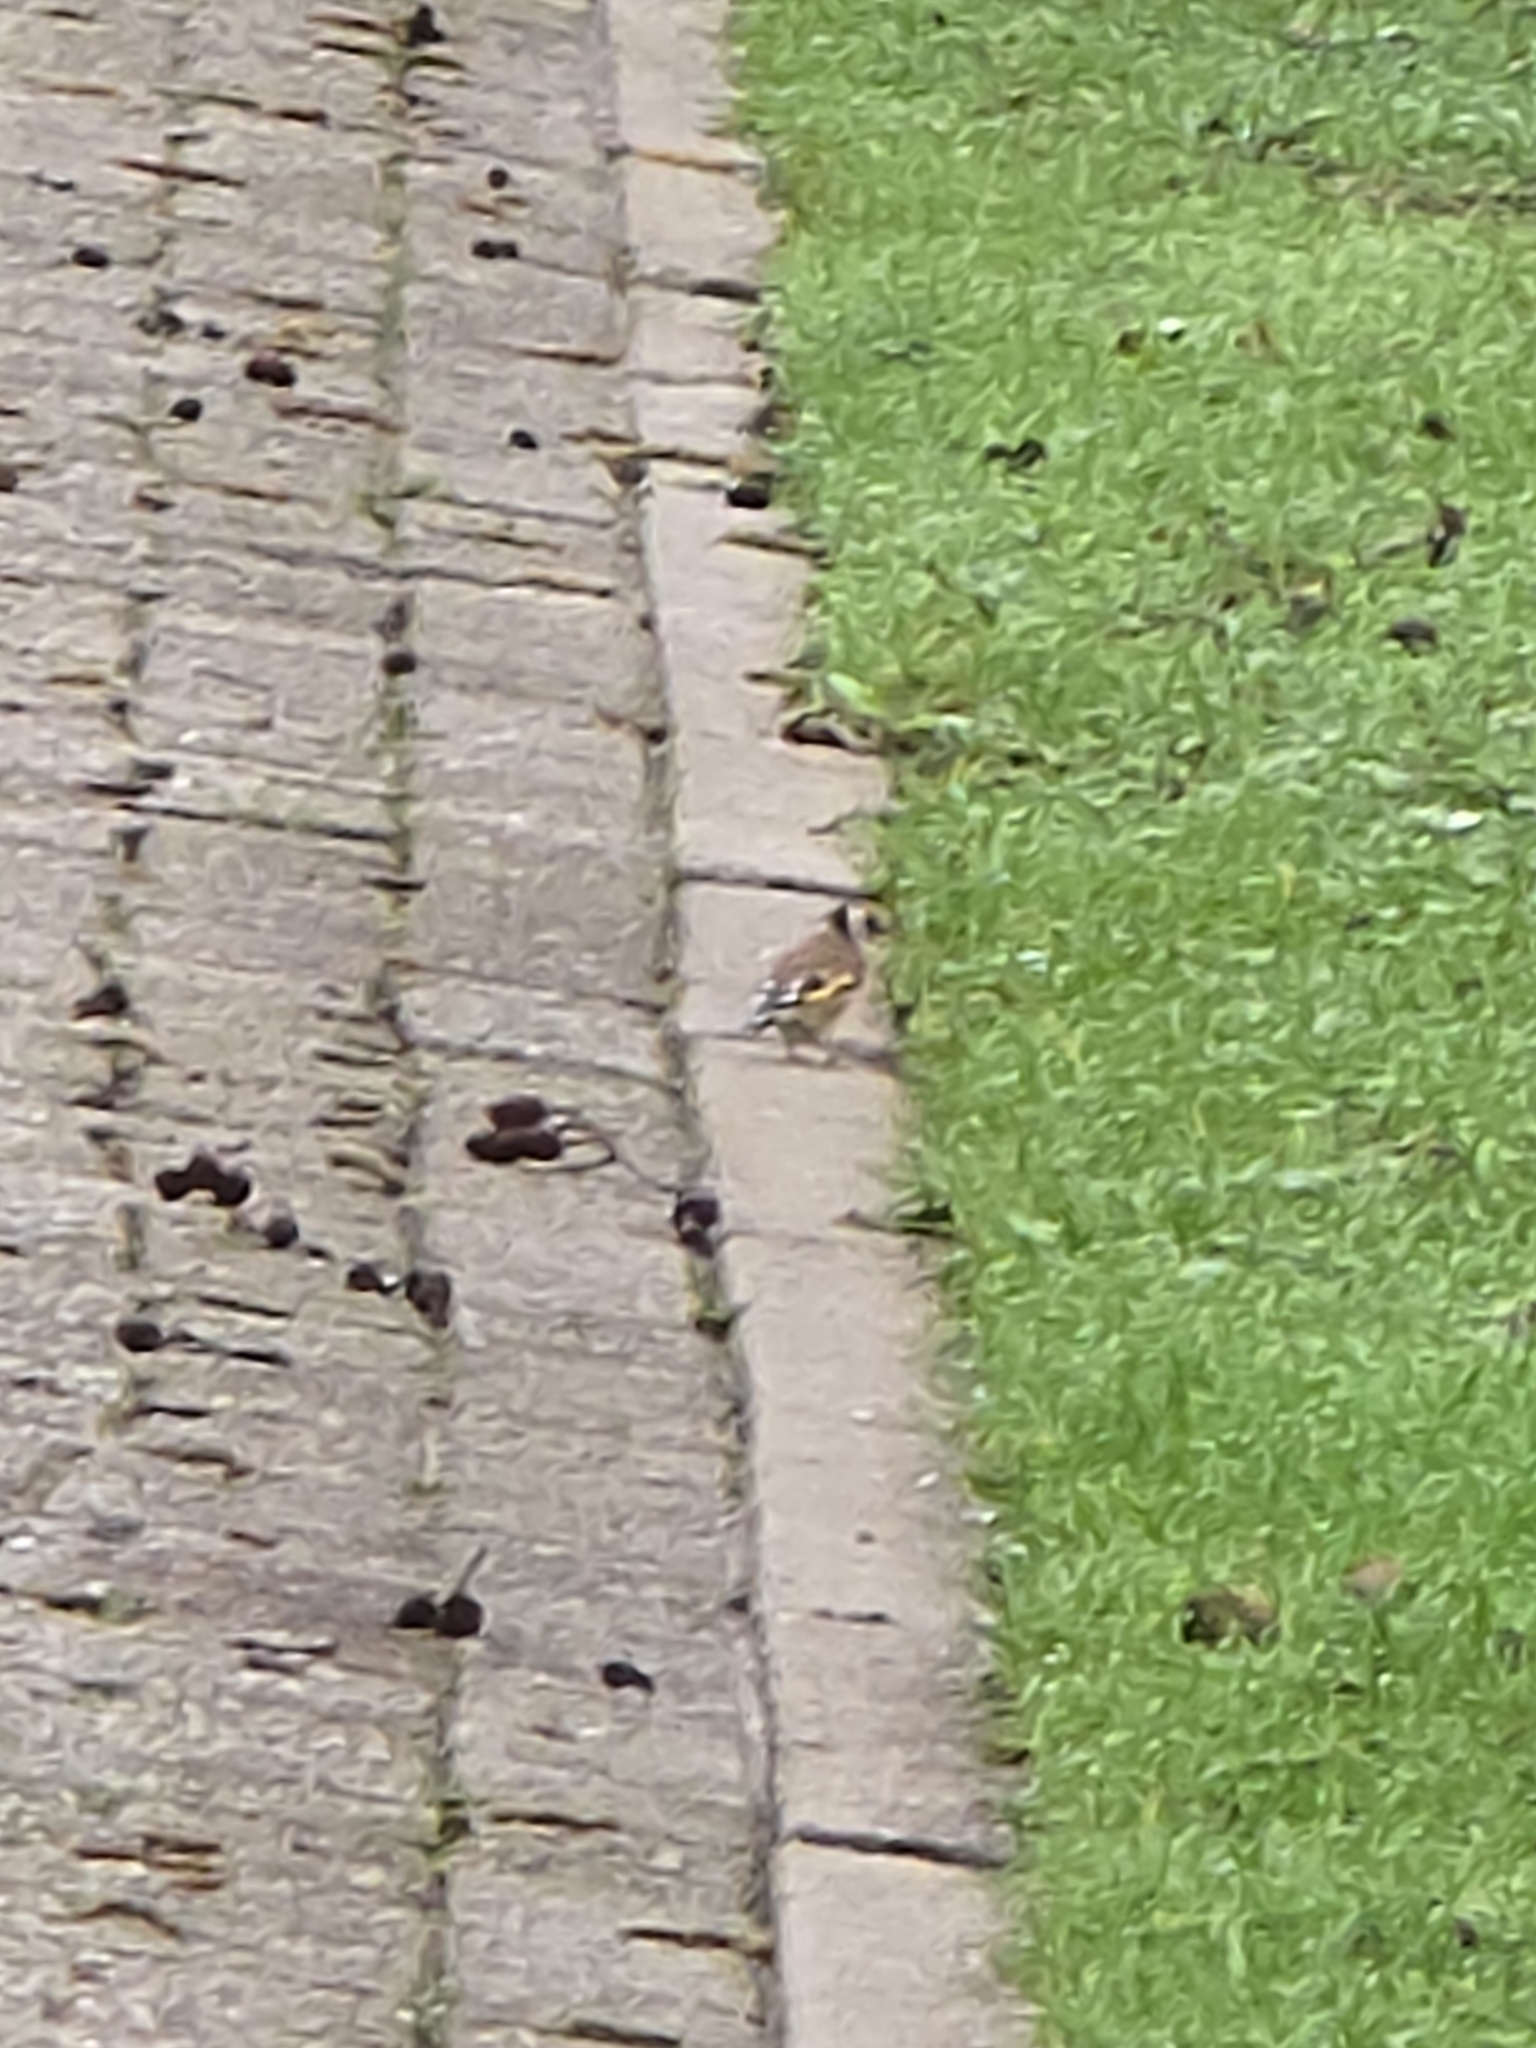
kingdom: Animalia
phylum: Chordata
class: Aves
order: Passeriformes
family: Fringillidae
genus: Carduelis
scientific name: Carduelis carduelis
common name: European goldfinch
